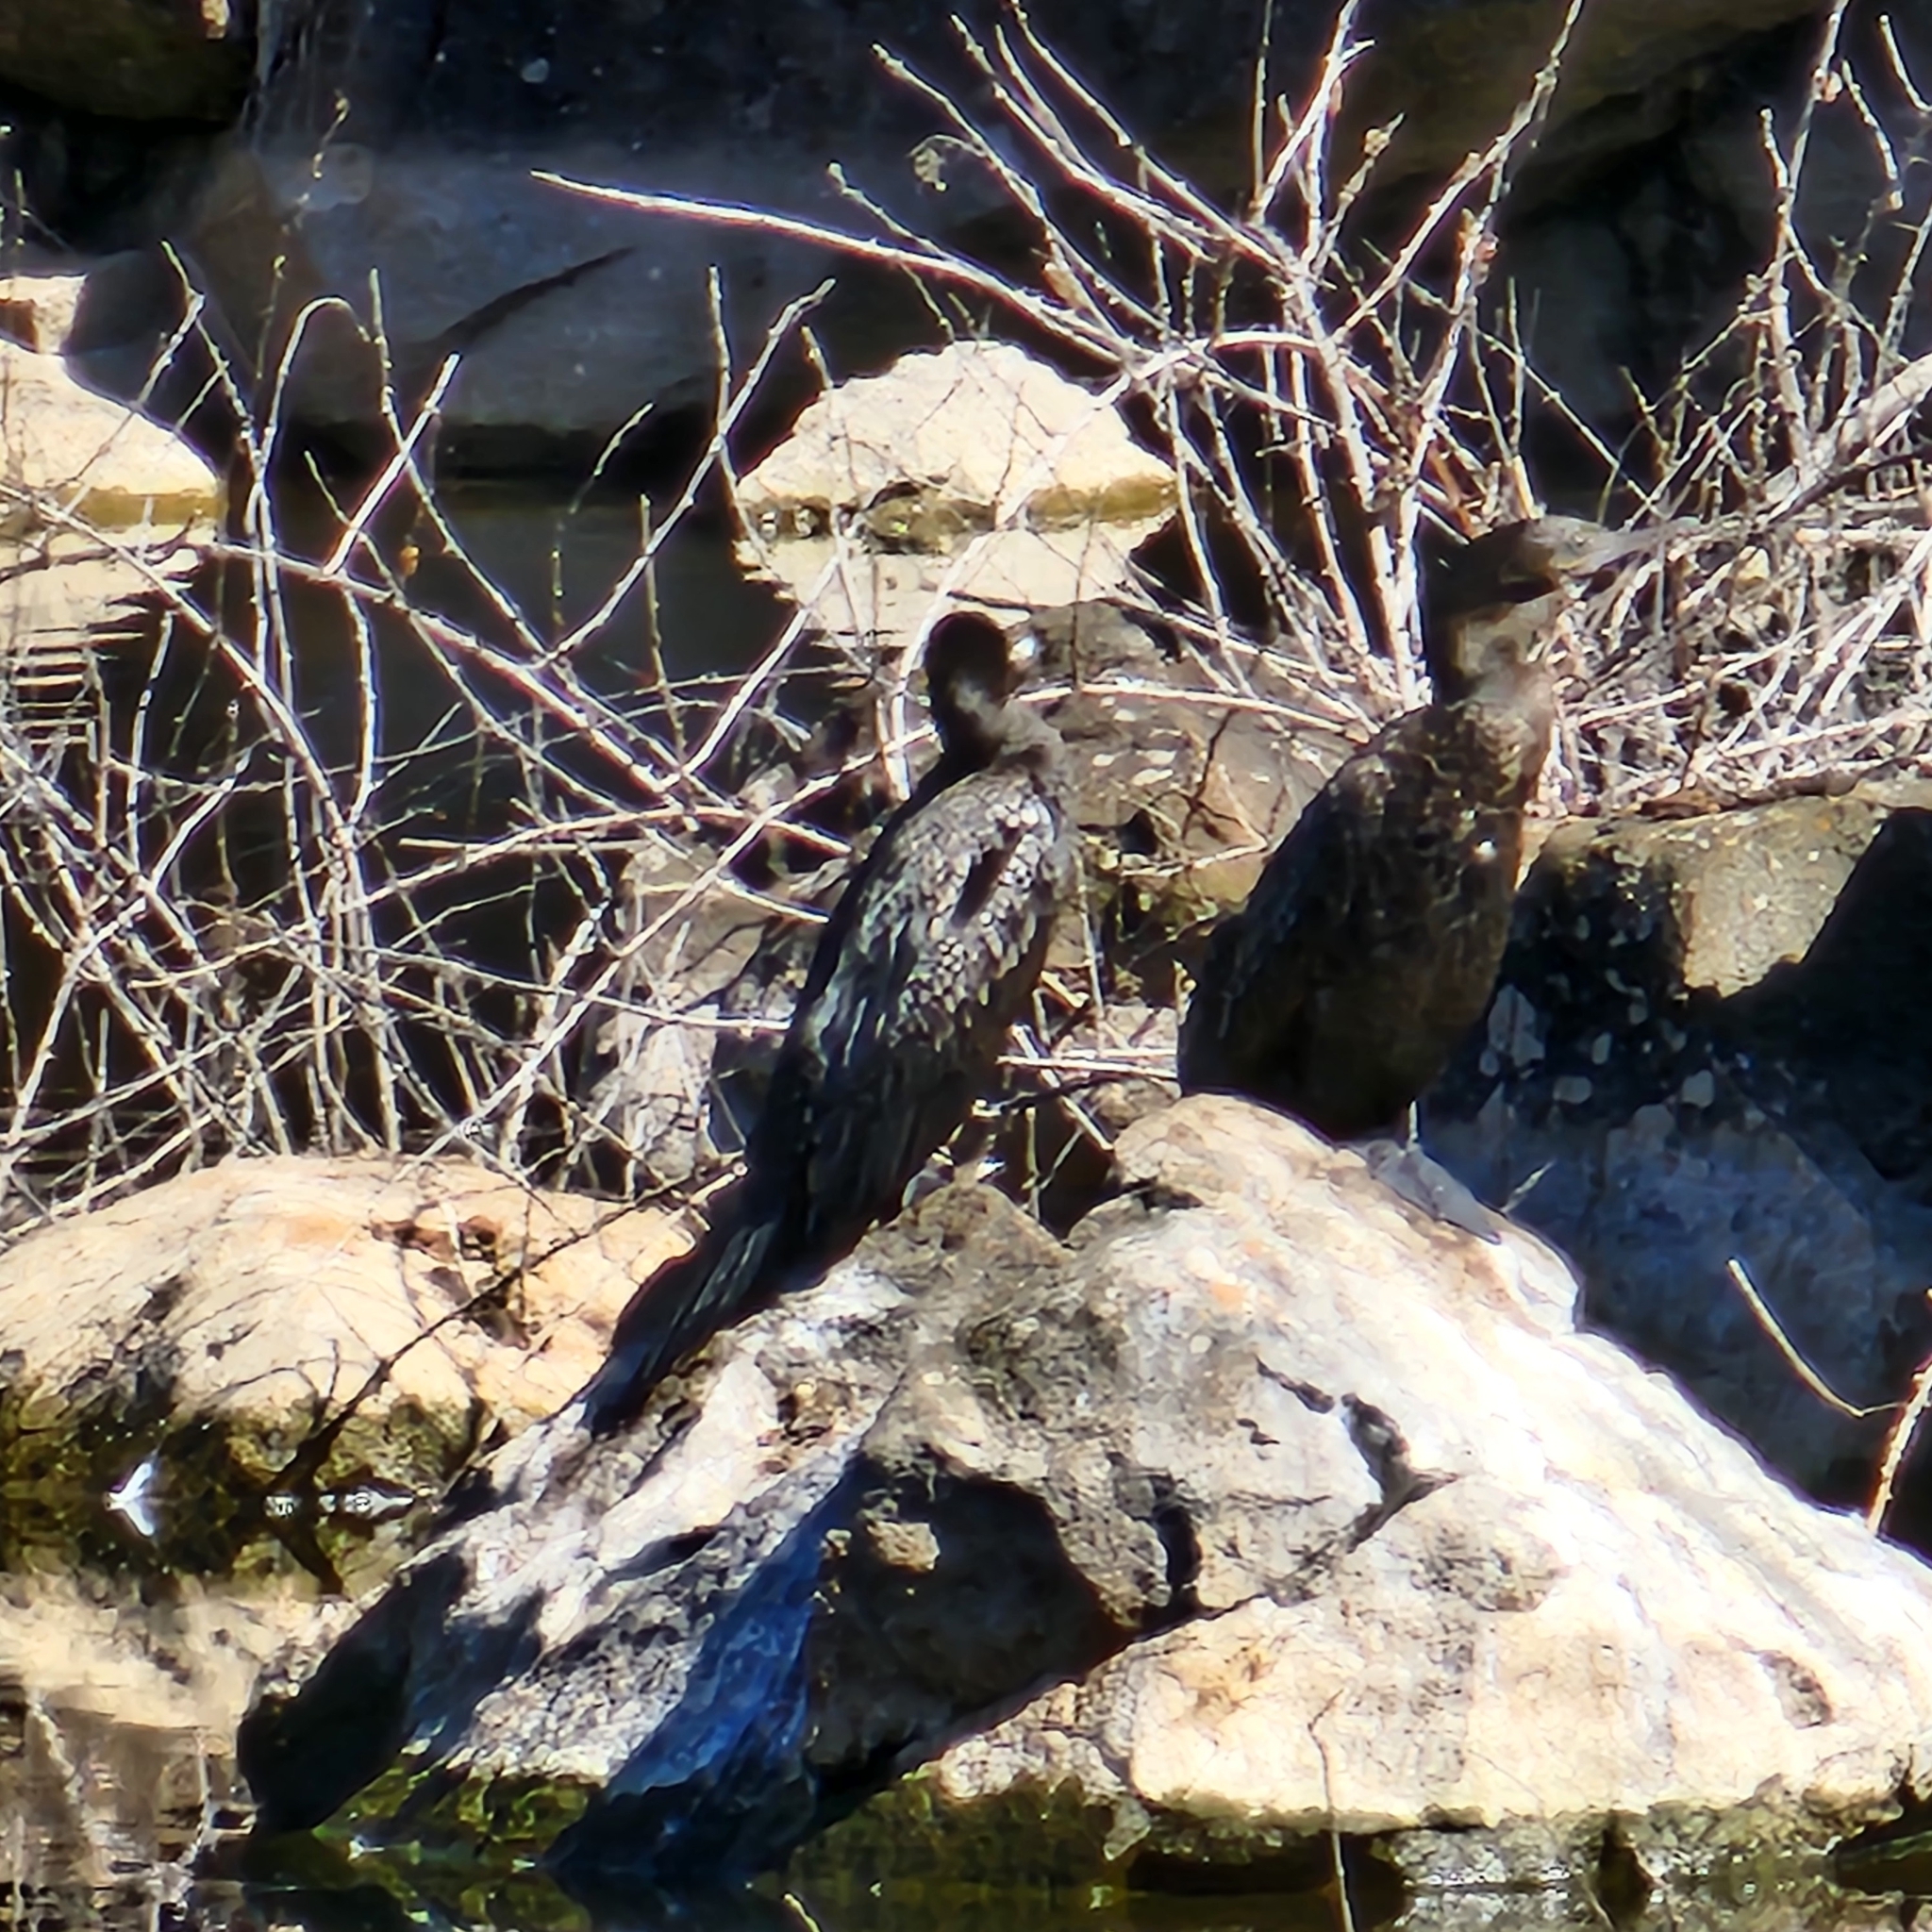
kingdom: Animalia
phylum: Chordata
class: Aves
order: Suliformes
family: Phalacrocoracidae
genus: Phalacrocorax
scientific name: Phalacrocorax sulcirostris
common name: Little black cormorant
